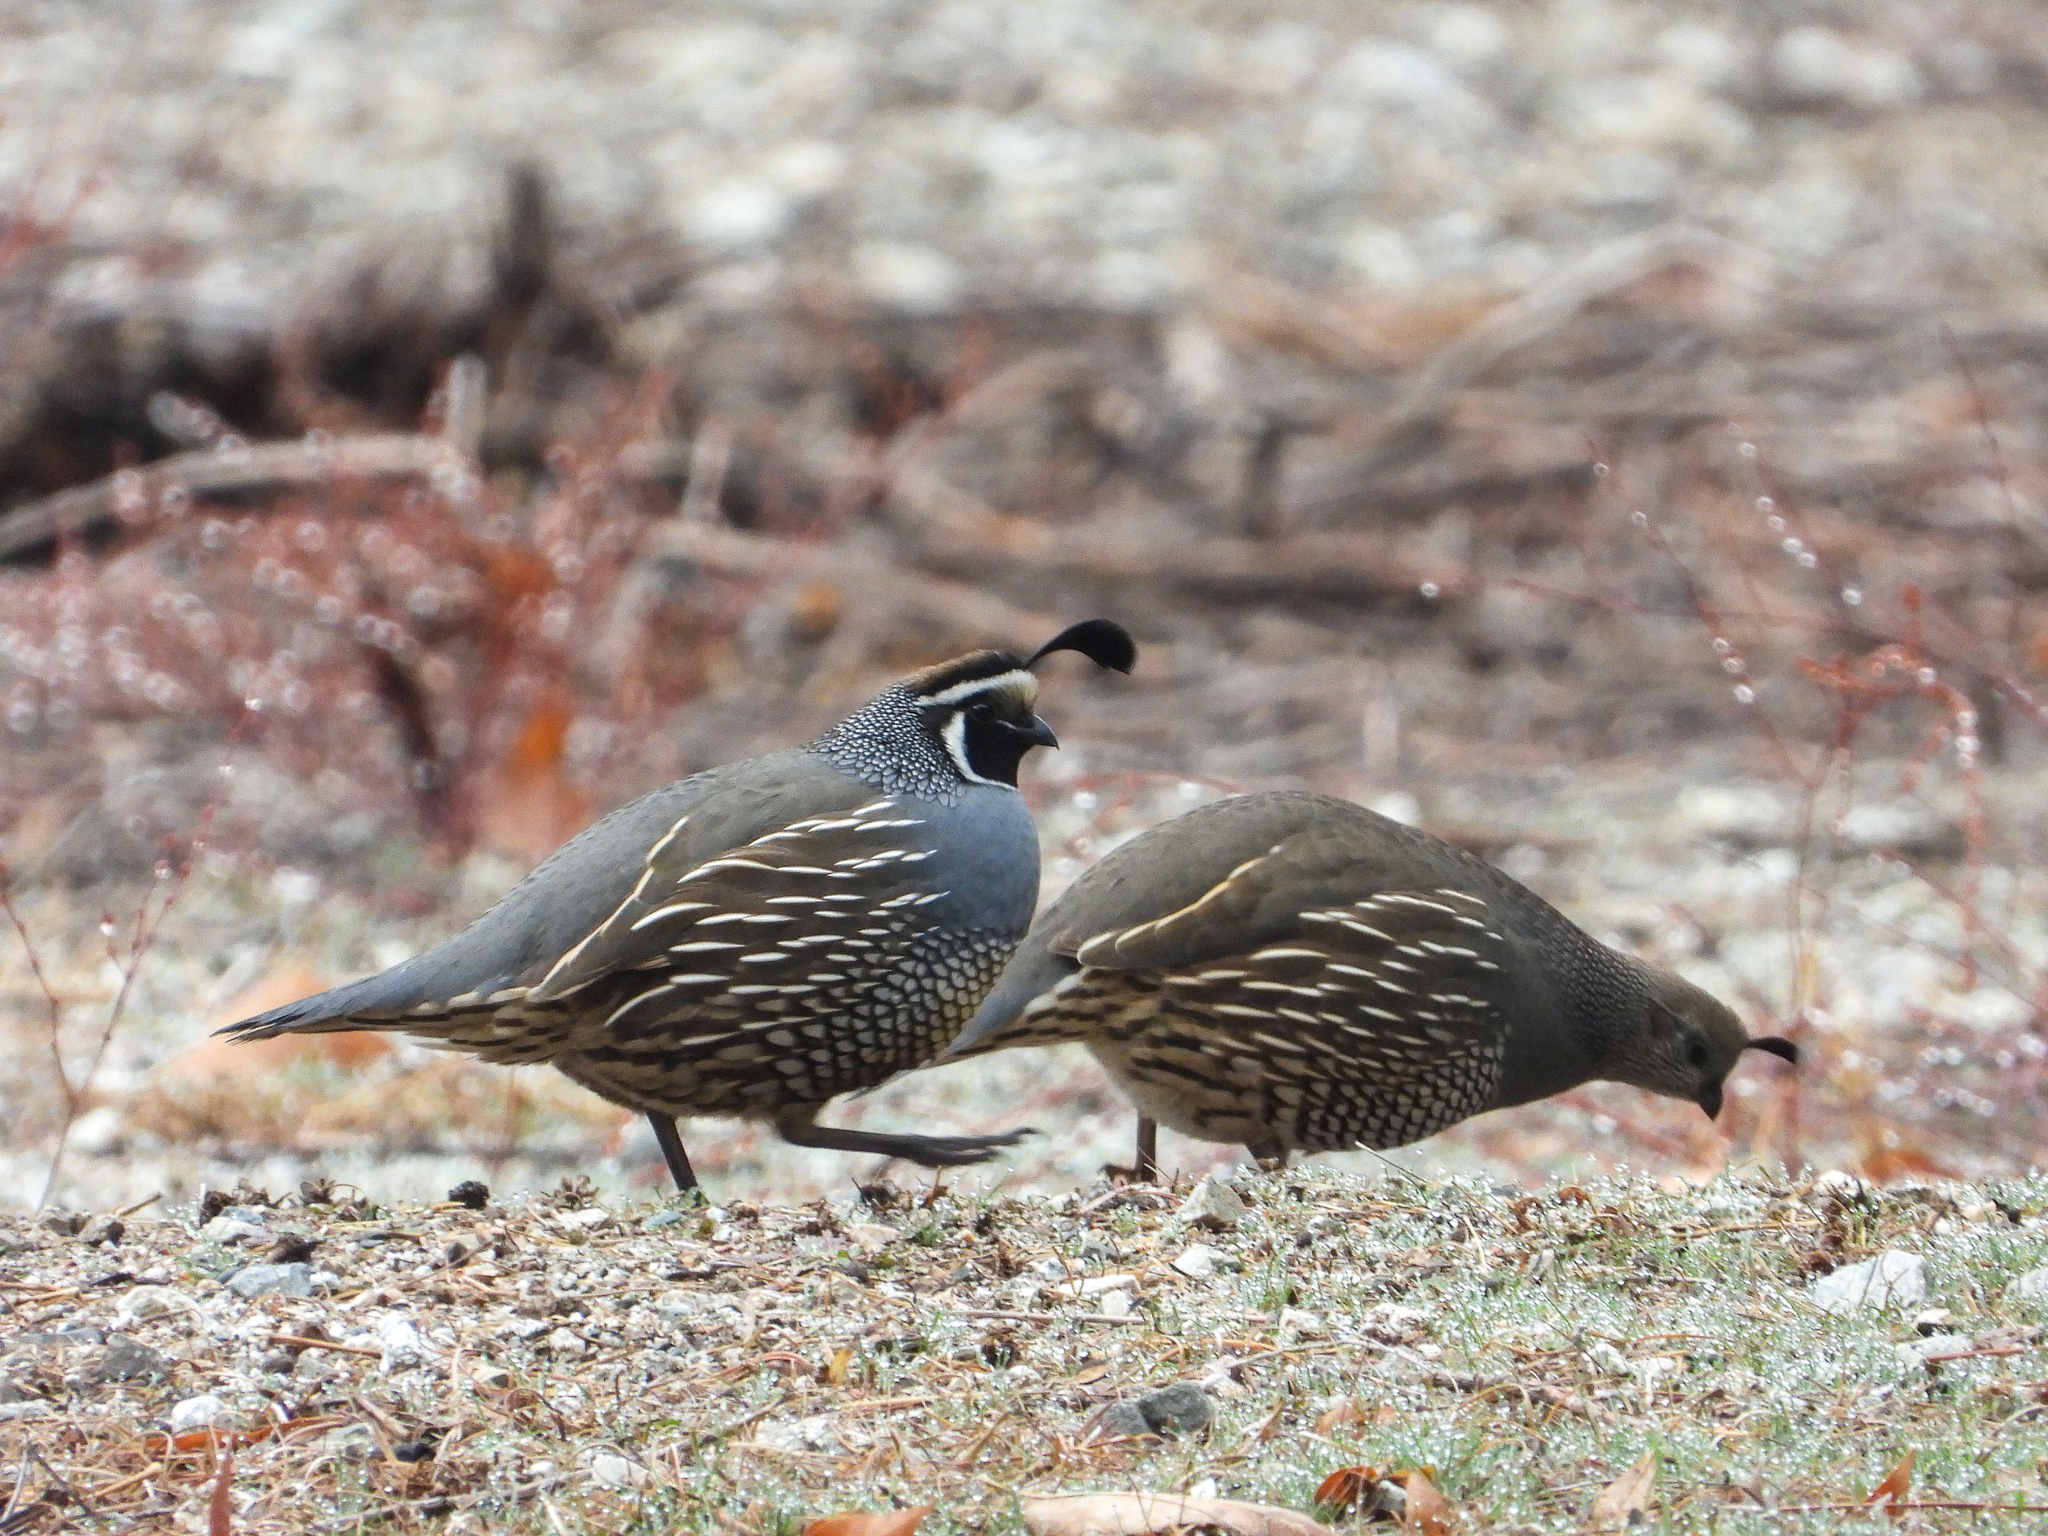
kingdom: Animalia
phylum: Chordata
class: Aves
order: Galliformes
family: Odontophoridae
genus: Callipepla
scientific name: Callipepla californica
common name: California quail
